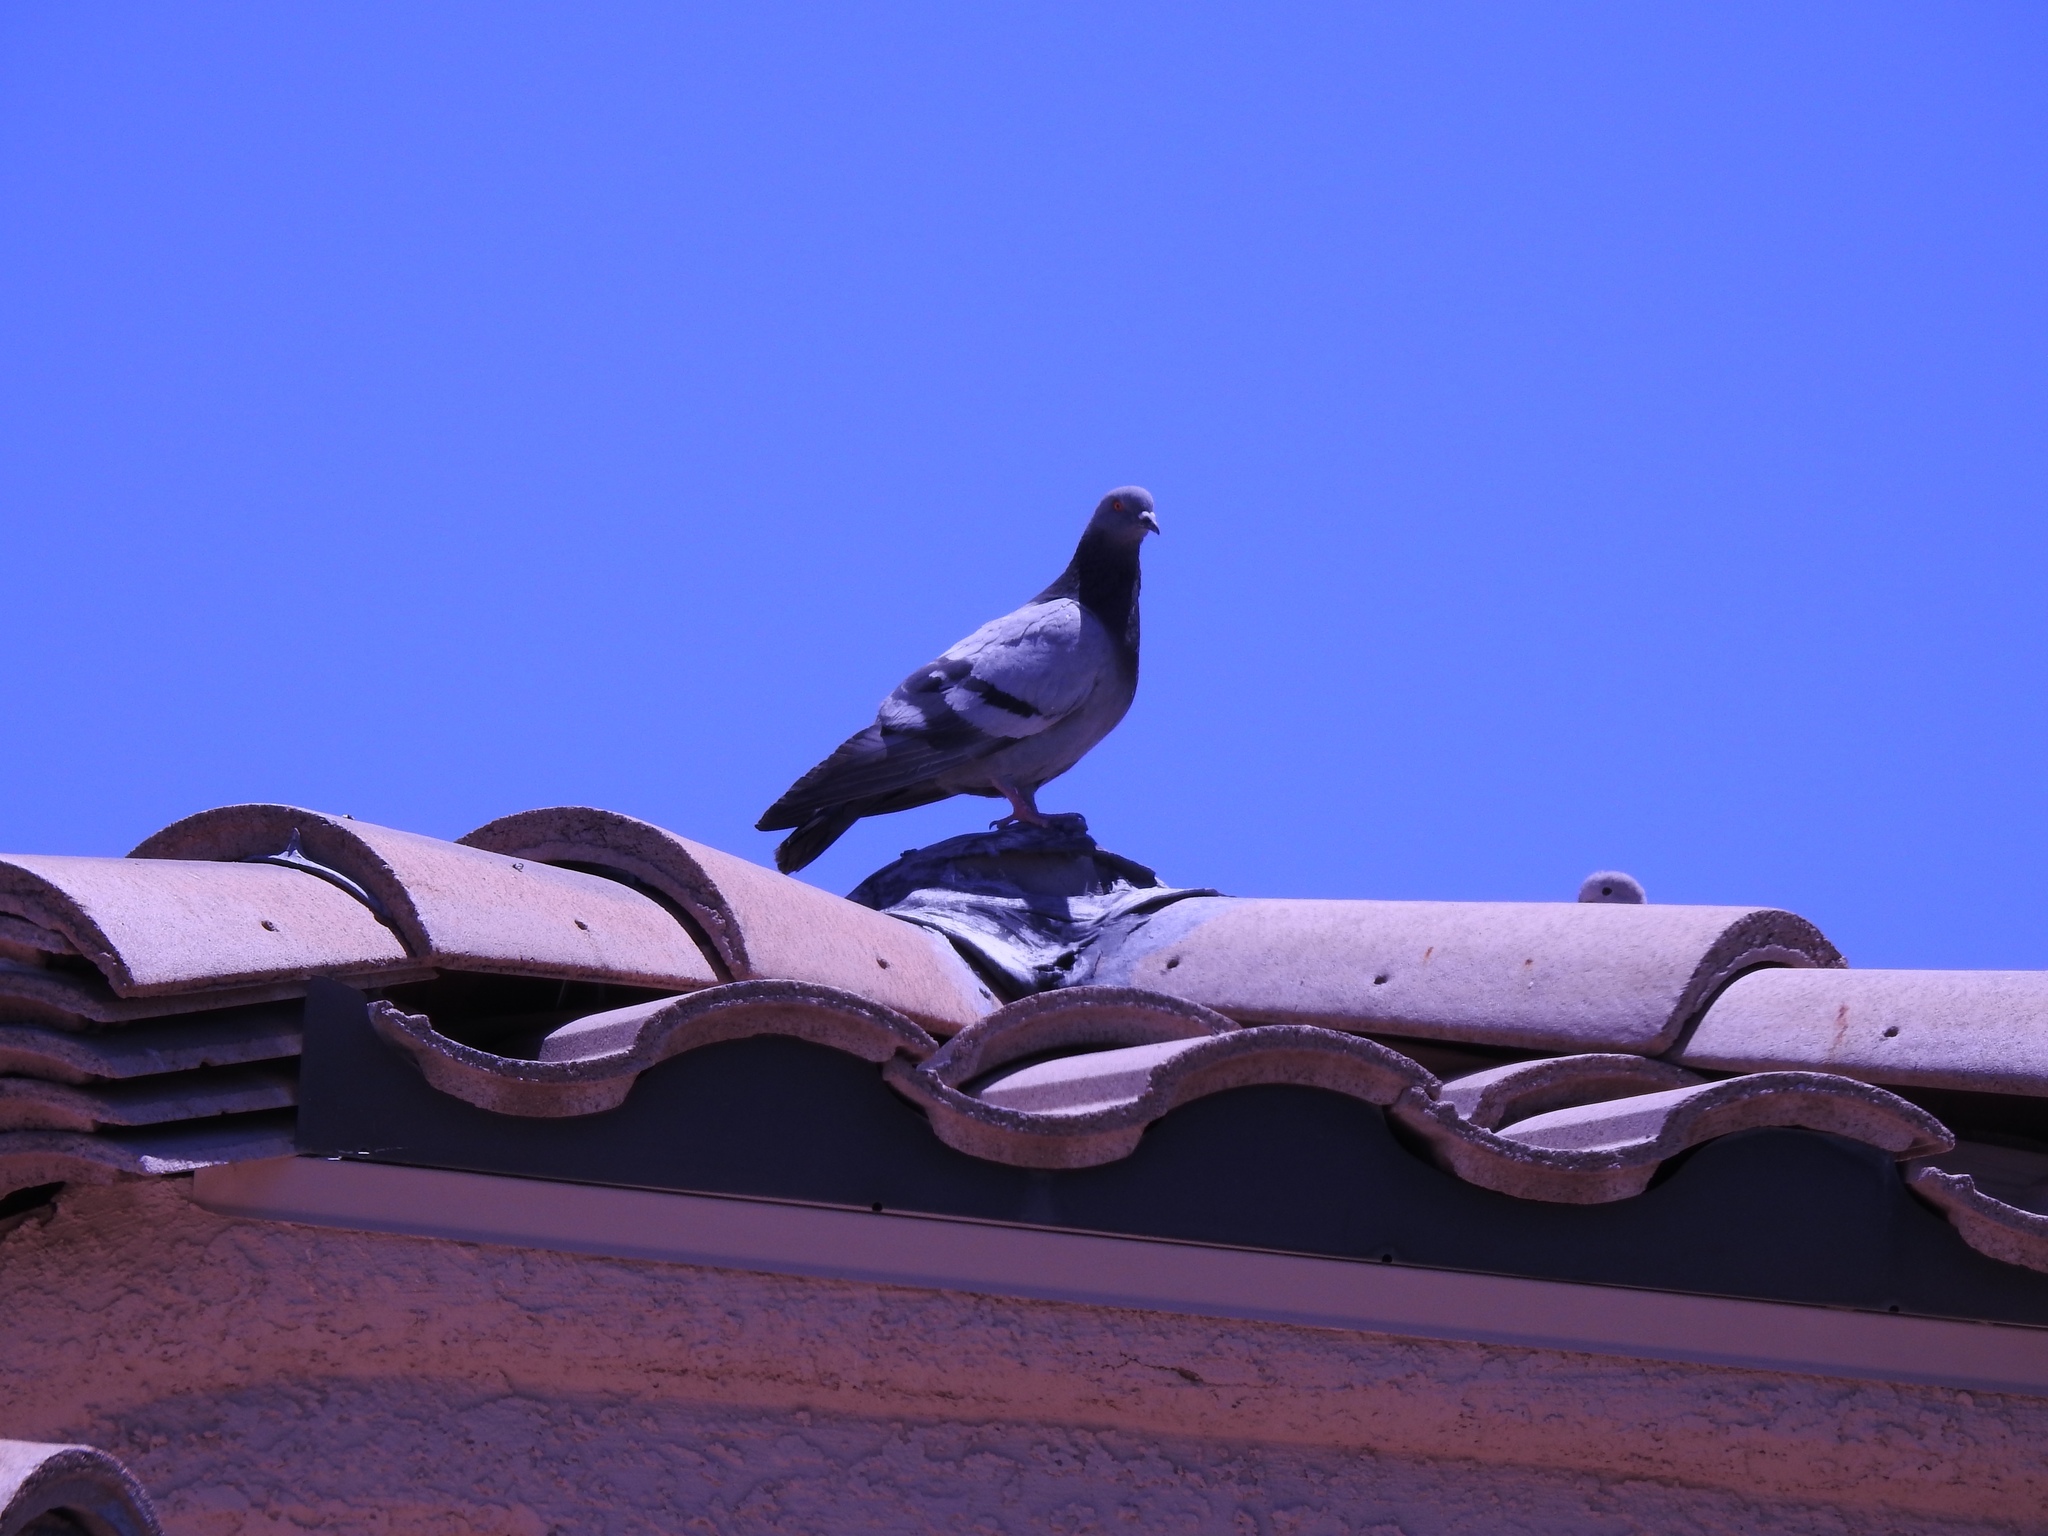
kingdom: Animalia
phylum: Chordata
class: Aves
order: Columbiformes
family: Columbidae
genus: Columba
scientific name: Columba livia
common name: Rock pigeon
